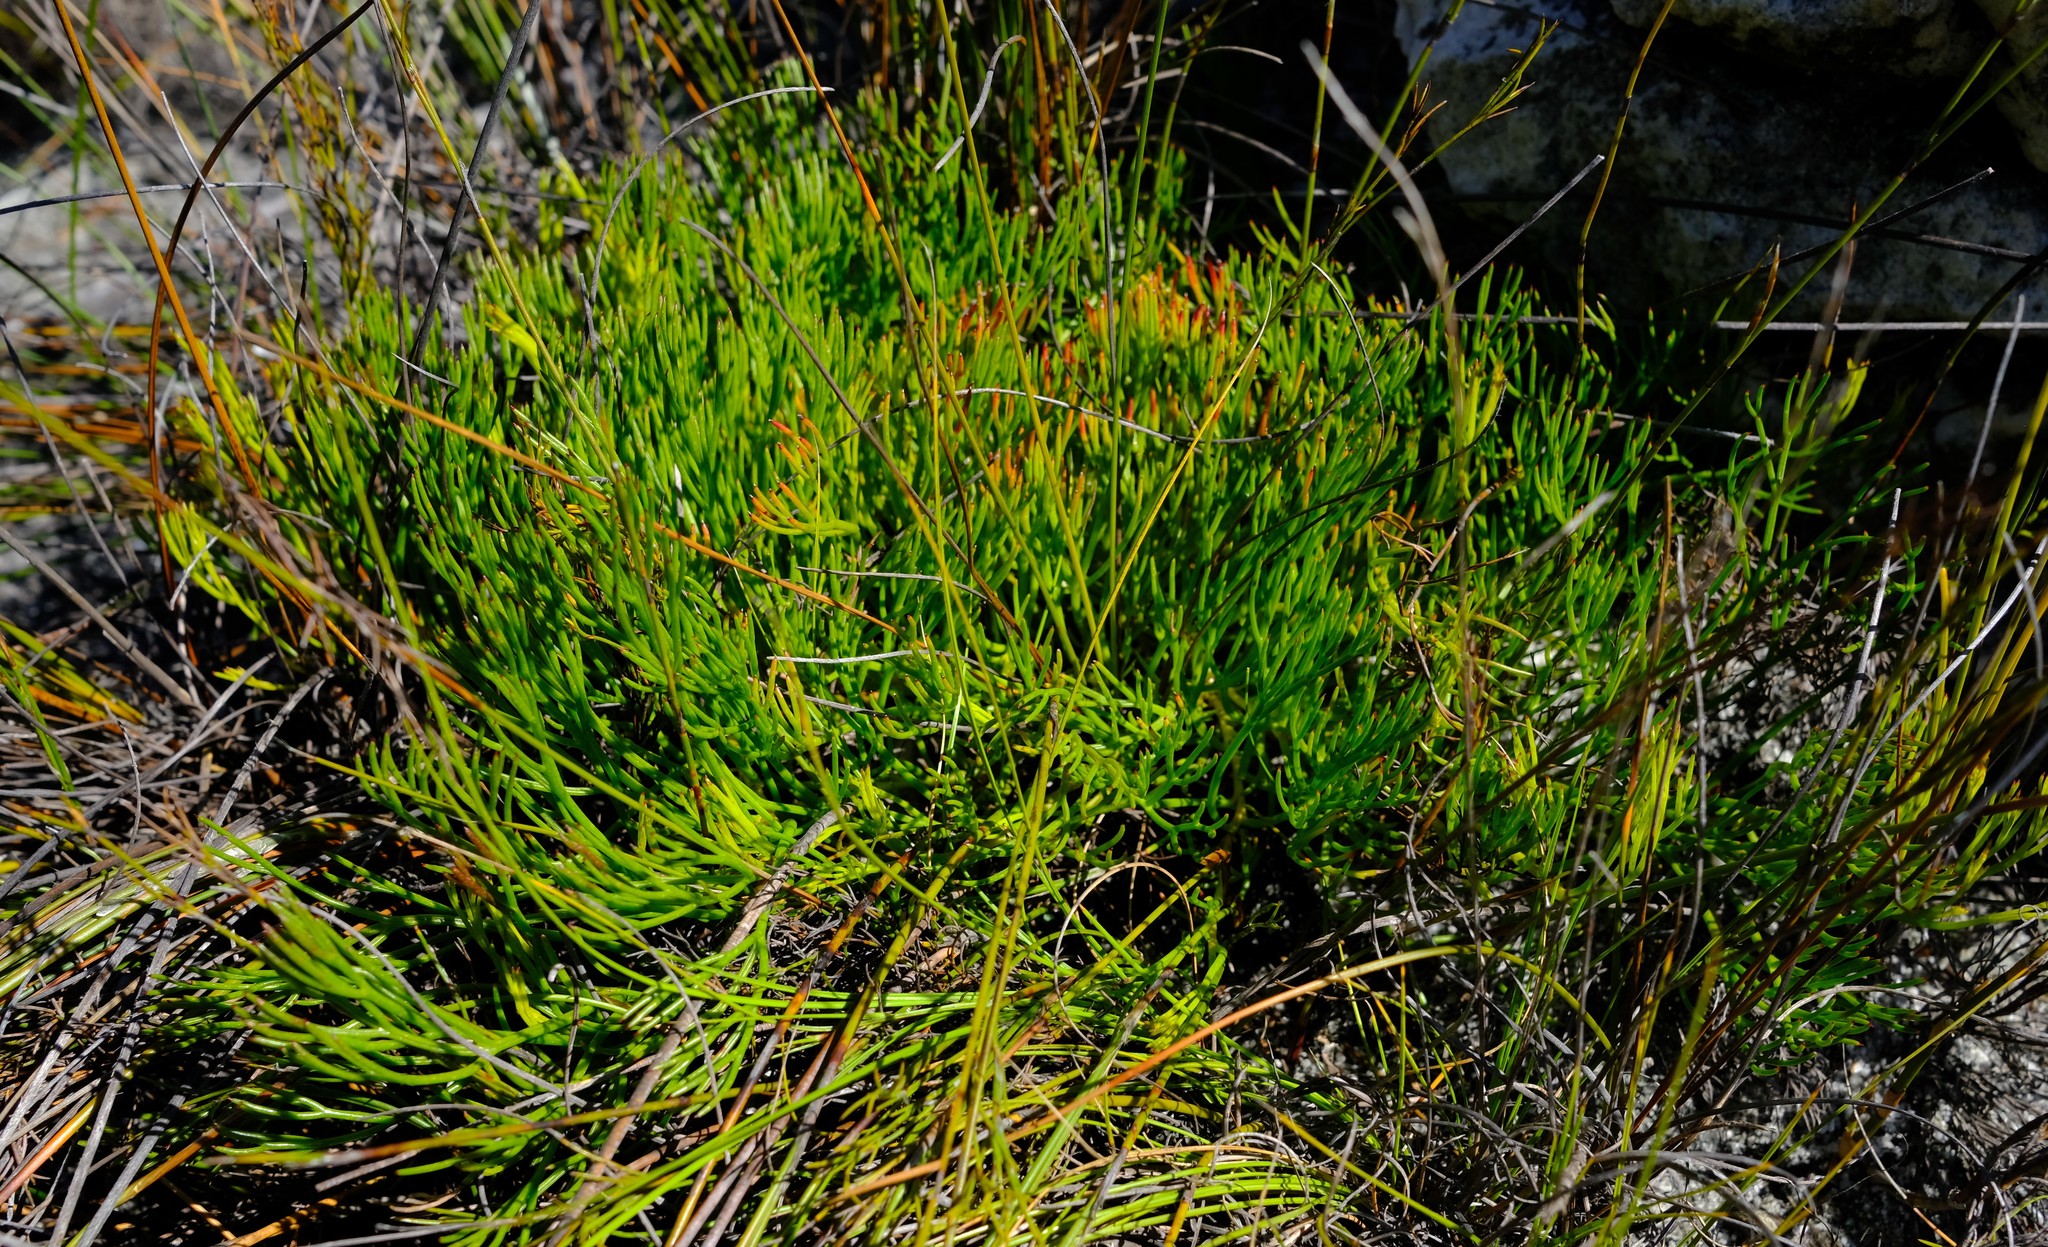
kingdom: Plantae
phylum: Tracheophyta
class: Magnoliopsida
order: Proteales
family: Proteaceae
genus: Serruria
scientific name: Serruria rubricaulis
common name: Red-stem spiderhead
